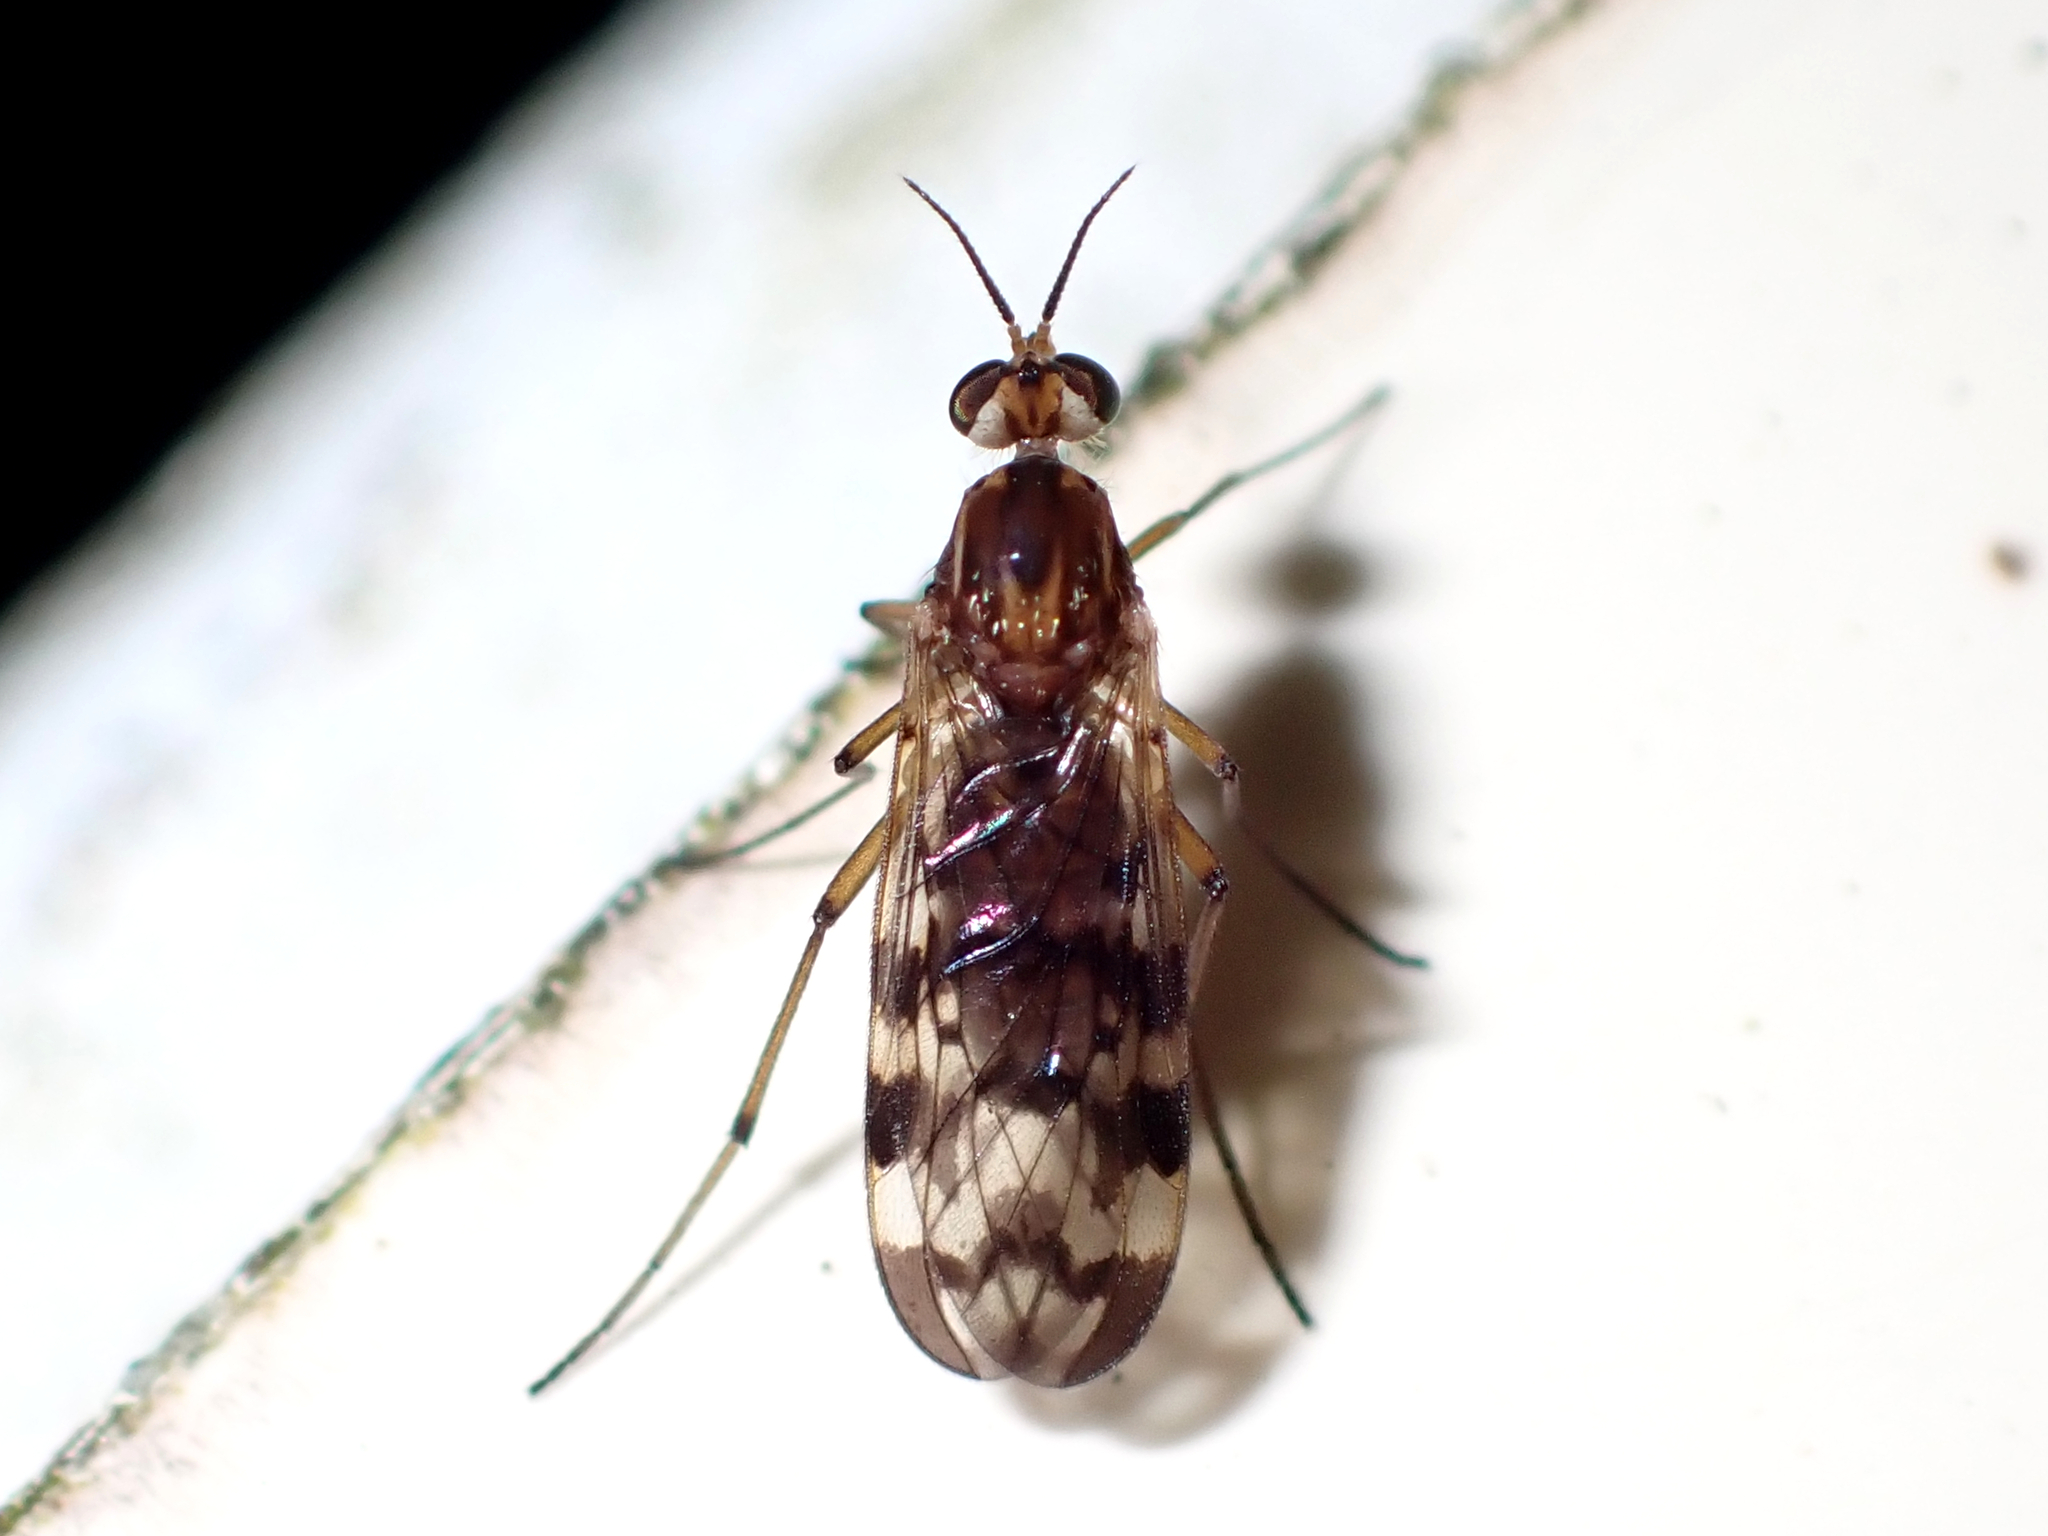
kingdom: Animalia
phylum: Arthropoda
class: Insecta
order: Diptera
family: Anisopodidae
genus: Sylvicola
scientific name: Sylvicola dubius
